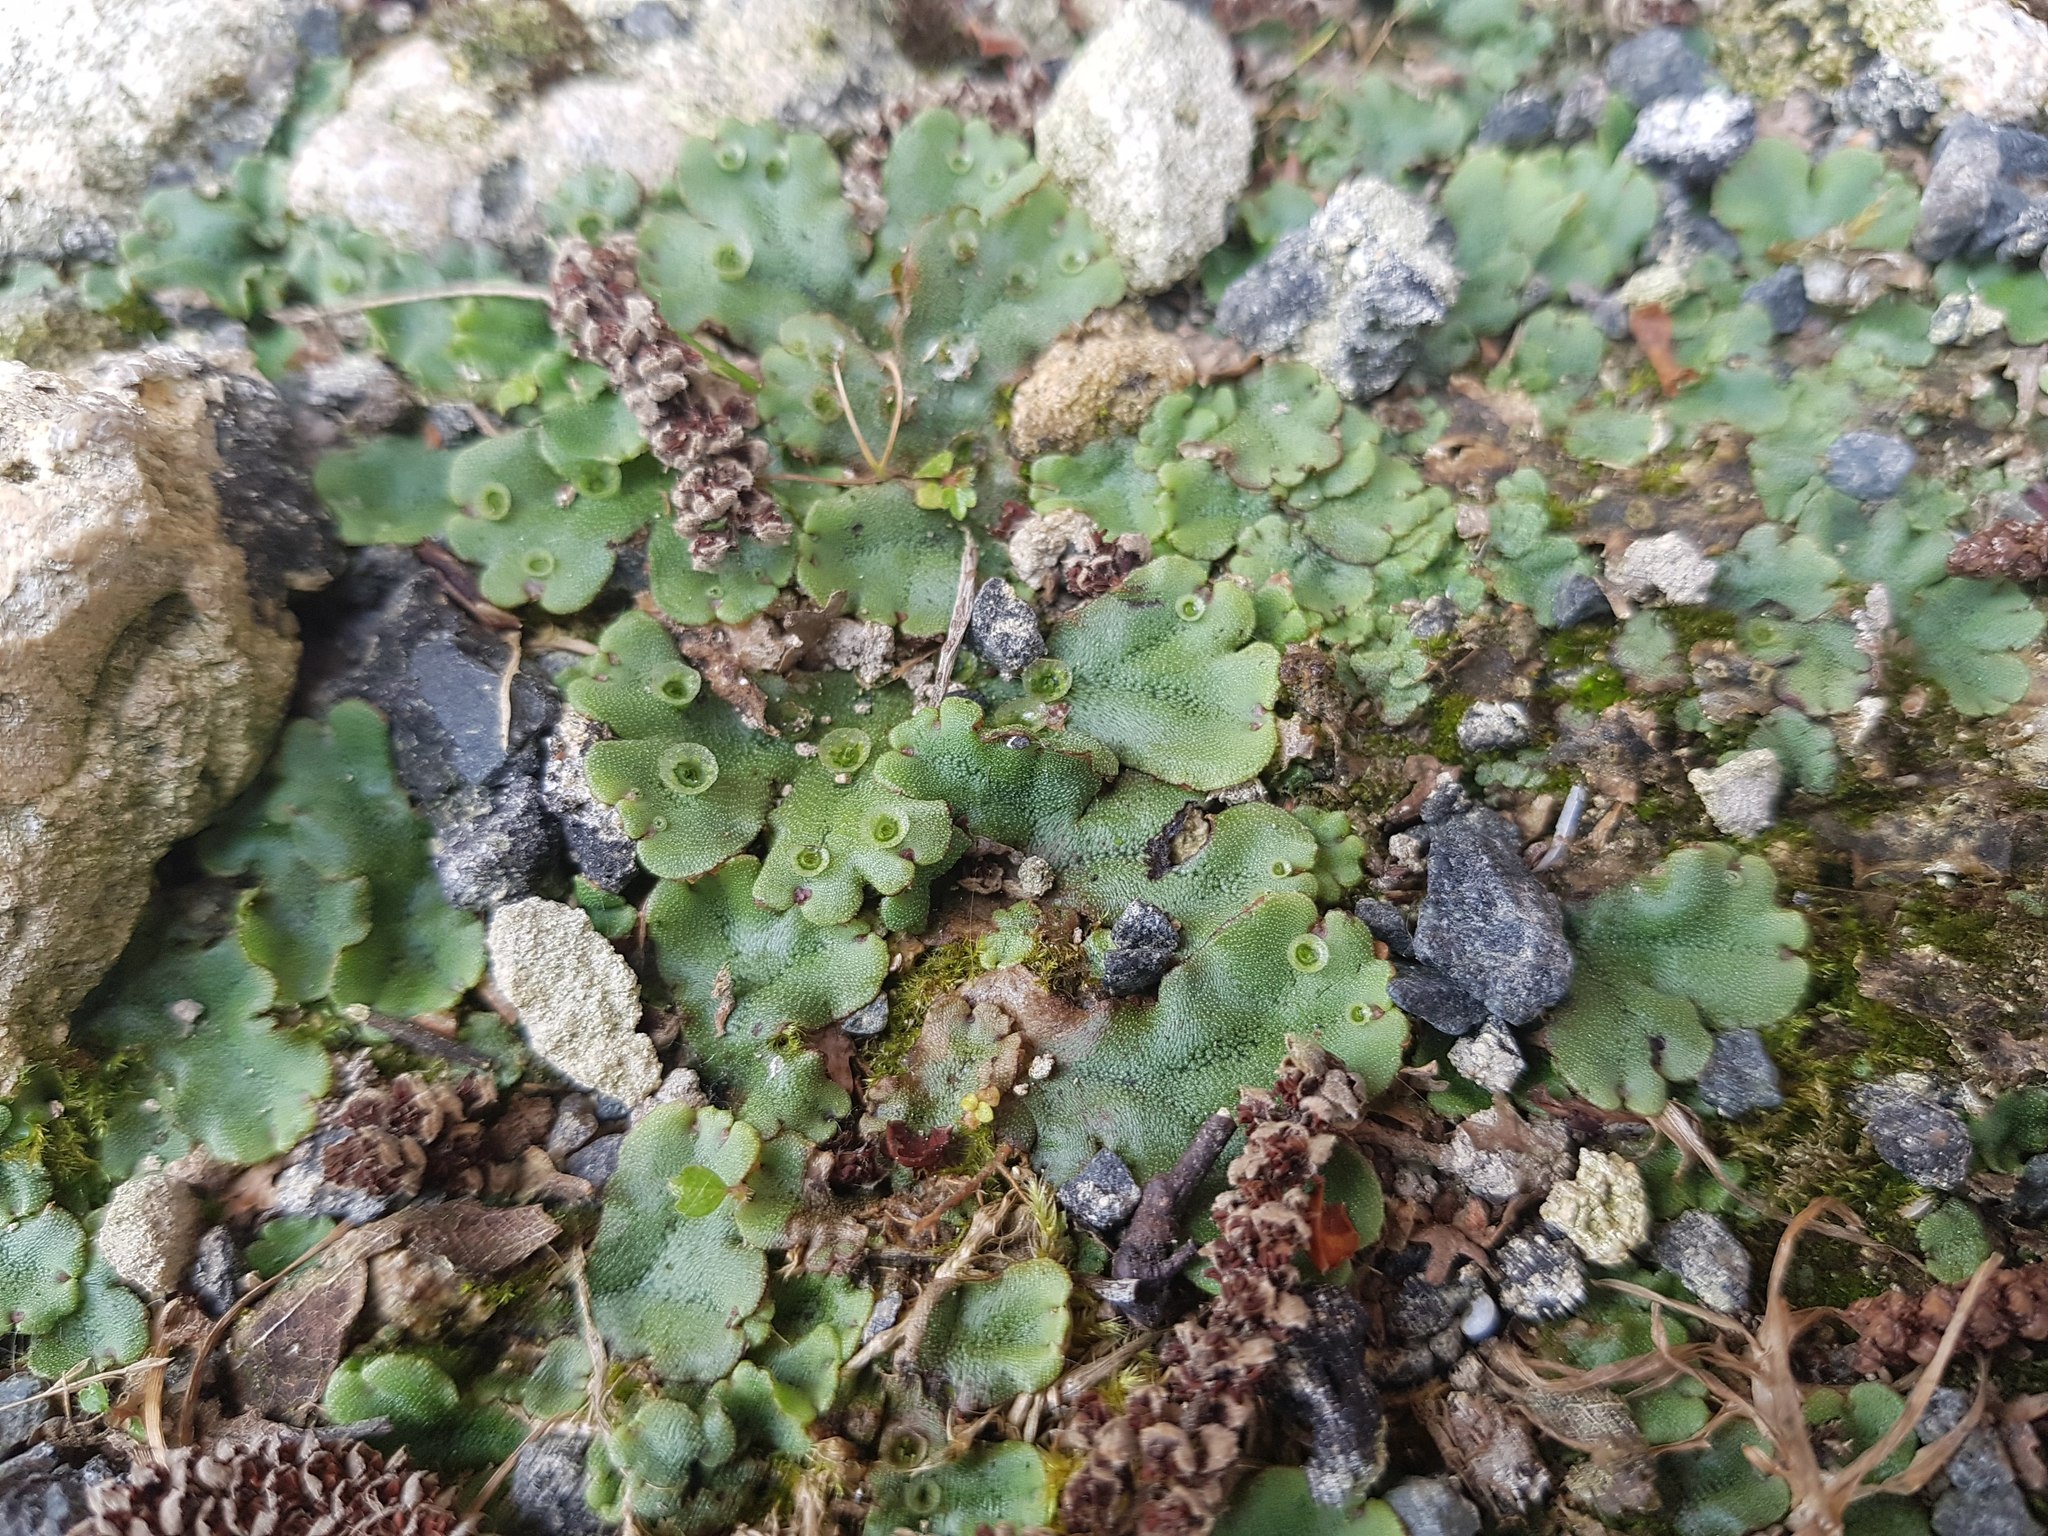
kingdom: Plantae
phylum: Marchantiophyta
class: Marchantiopsida
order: Marchantiales
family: Marchantiaceae
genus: Marchantia
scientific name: Marchantia polymorpha
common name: Common liverwort
